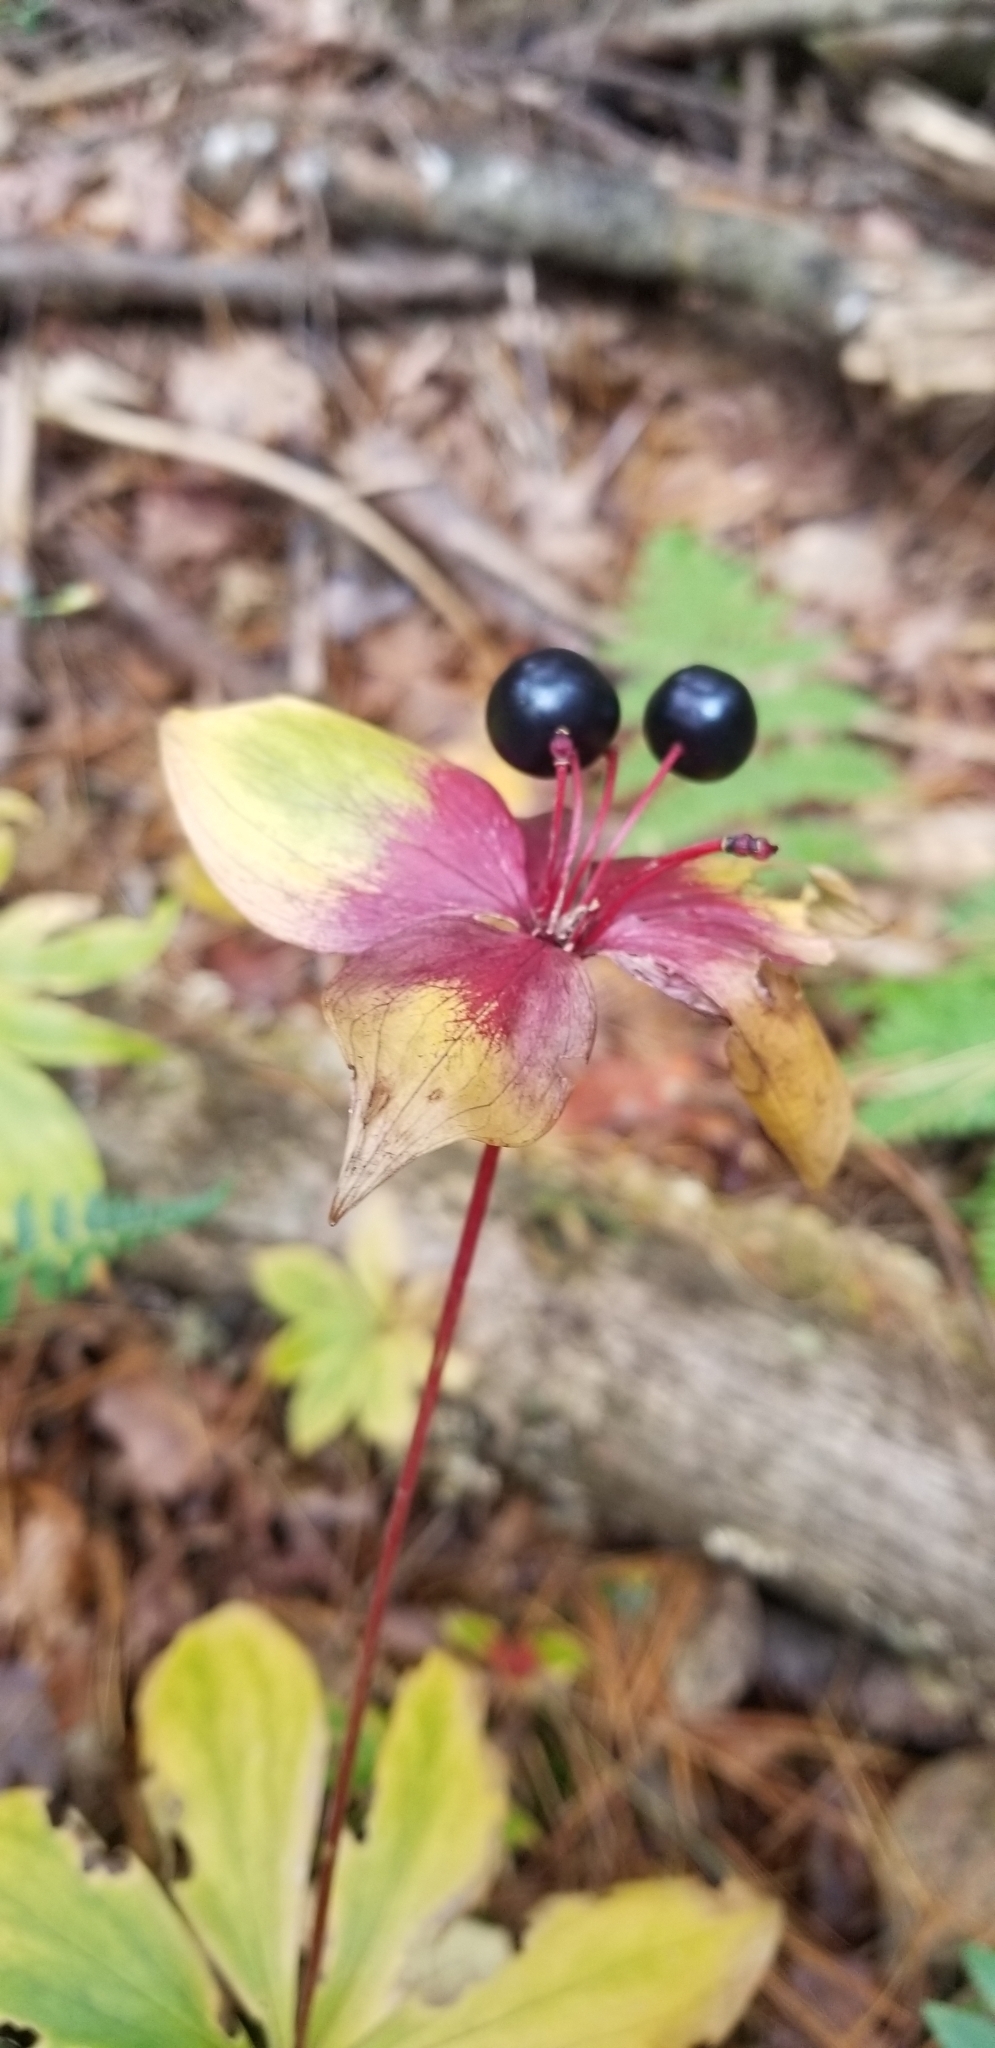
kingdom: Plantae
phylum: Tracheophyta
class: Liliopsida
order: Liliales
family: Liliaceae
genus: Medeola
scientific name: Medeola virginiana
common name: Indian cucumber-root
